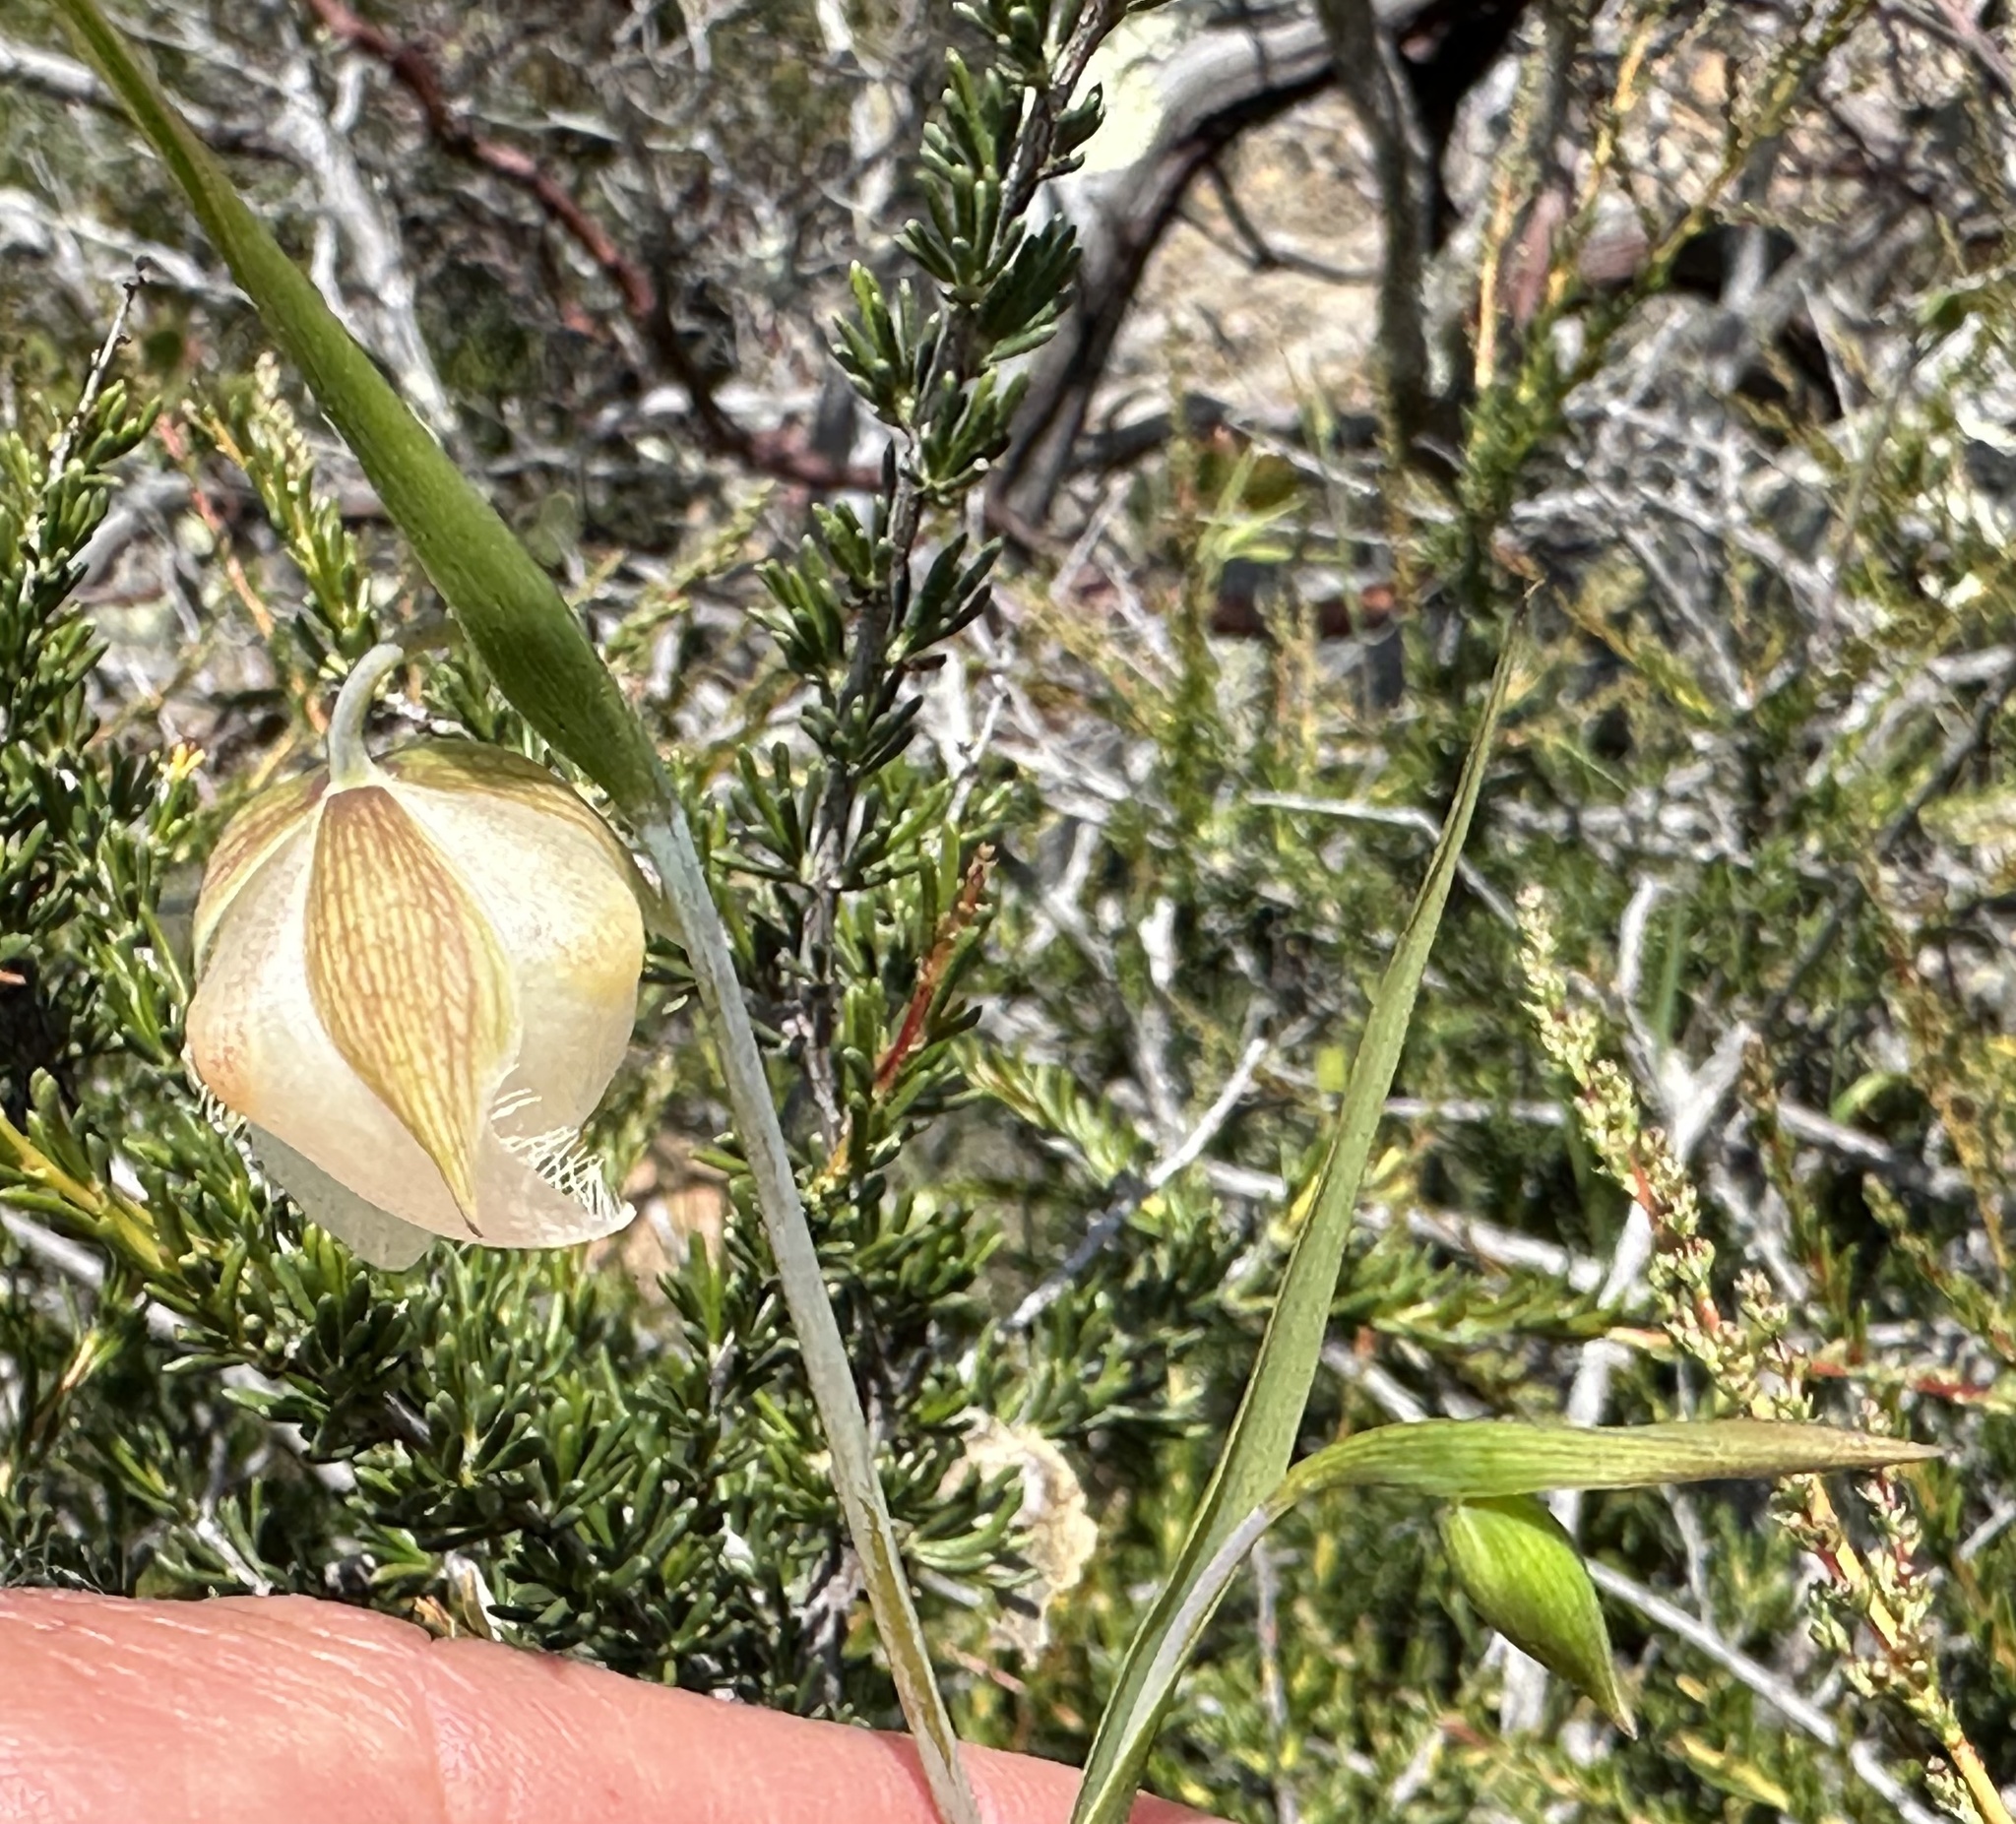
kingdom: Plantae
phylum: Tracheophyta
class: Liliopsida
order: Liliales
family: Liliaceae
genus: Calochortus
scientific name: Calochortus albus
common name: Fairy-lantern
